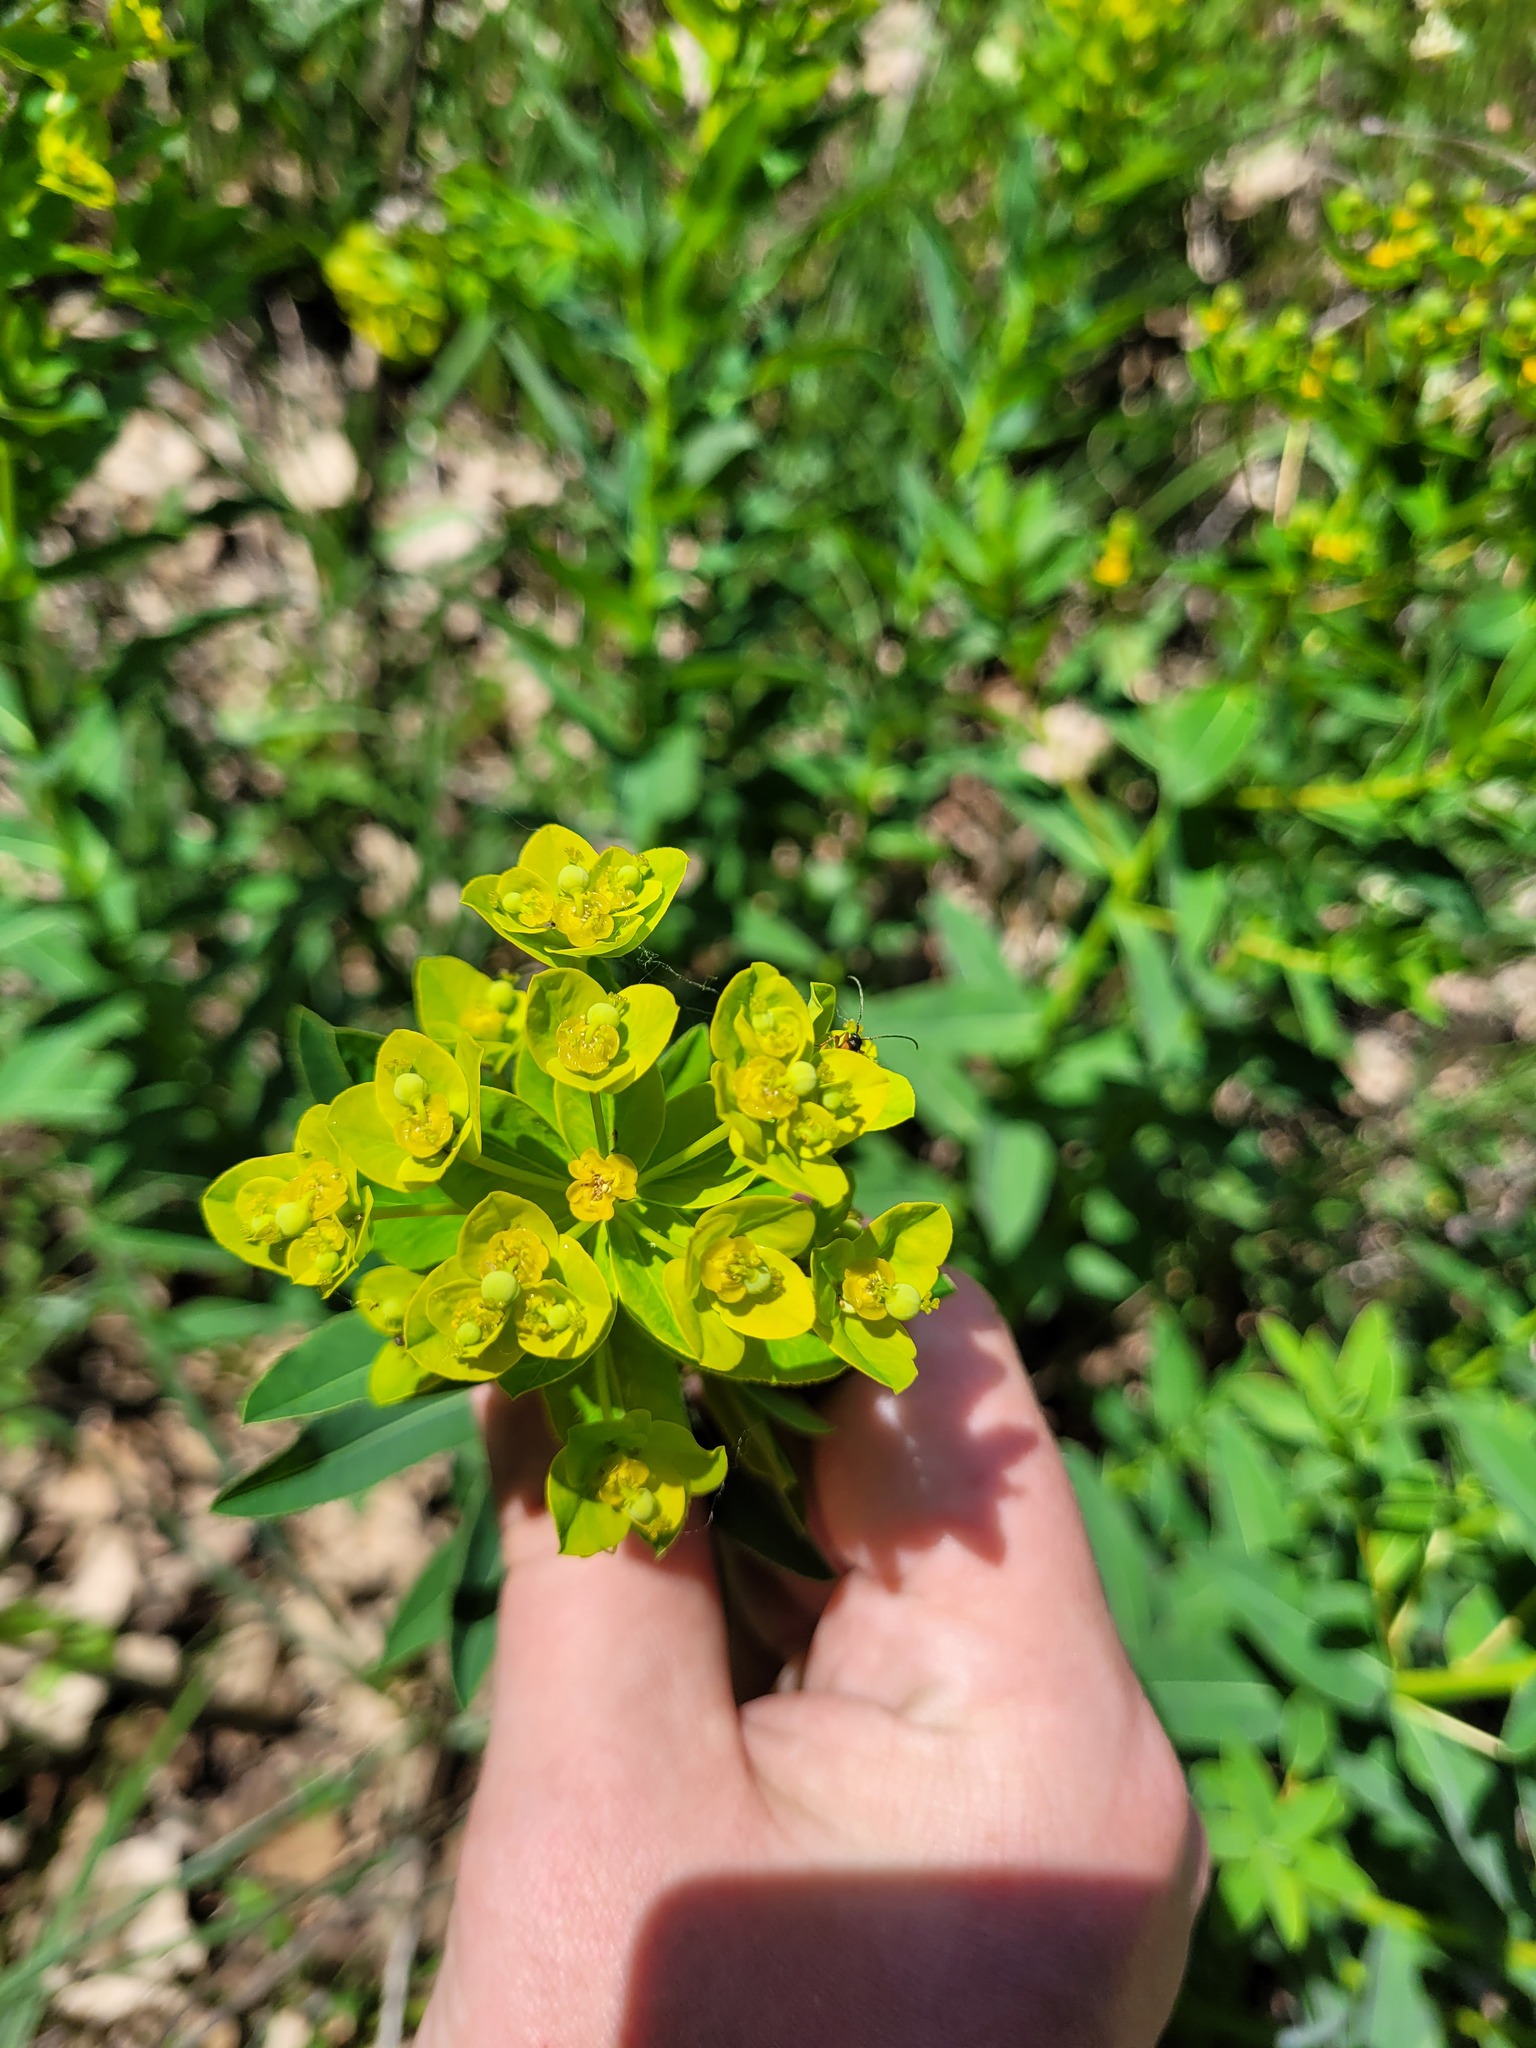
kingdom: Plantae
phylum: Tracheophyta
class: Magnoliopsida
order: Malpighiales
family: Euphorbiaceae
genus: Euphorbia
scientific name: Euphorbia semivillosa
